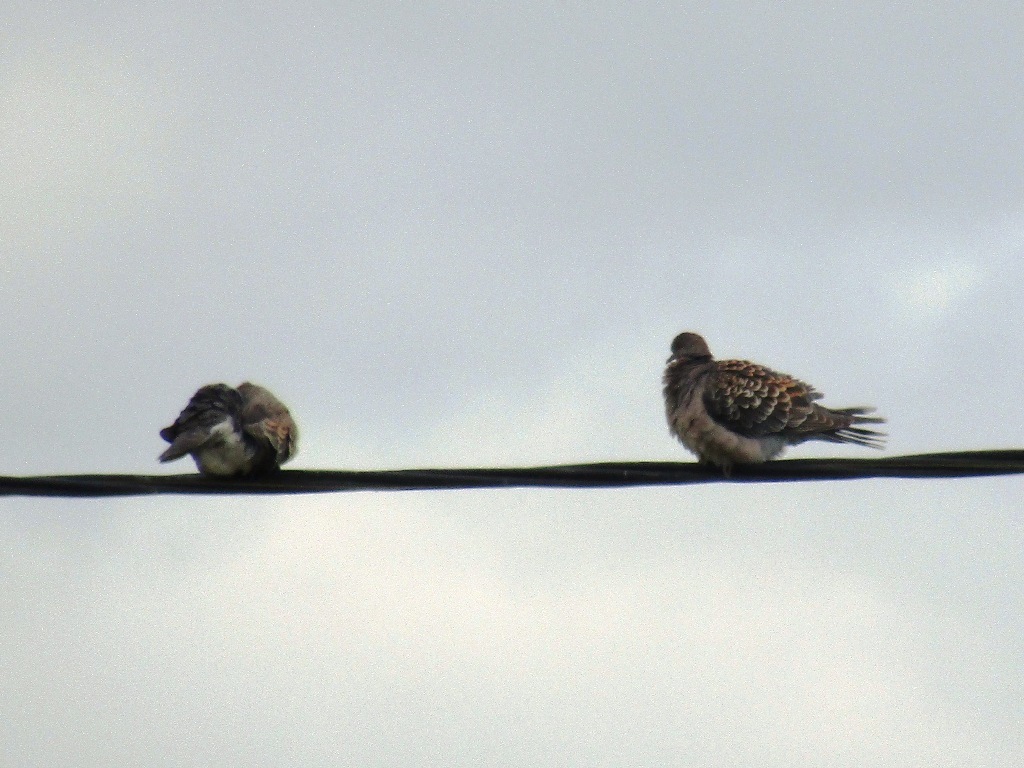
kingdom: Animalia
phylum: Chordata
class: Aves
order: Columbiformes
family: Columbidae
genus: Streptopelia
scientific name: Streptopelia orientalis
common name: Oriental turtle dove
